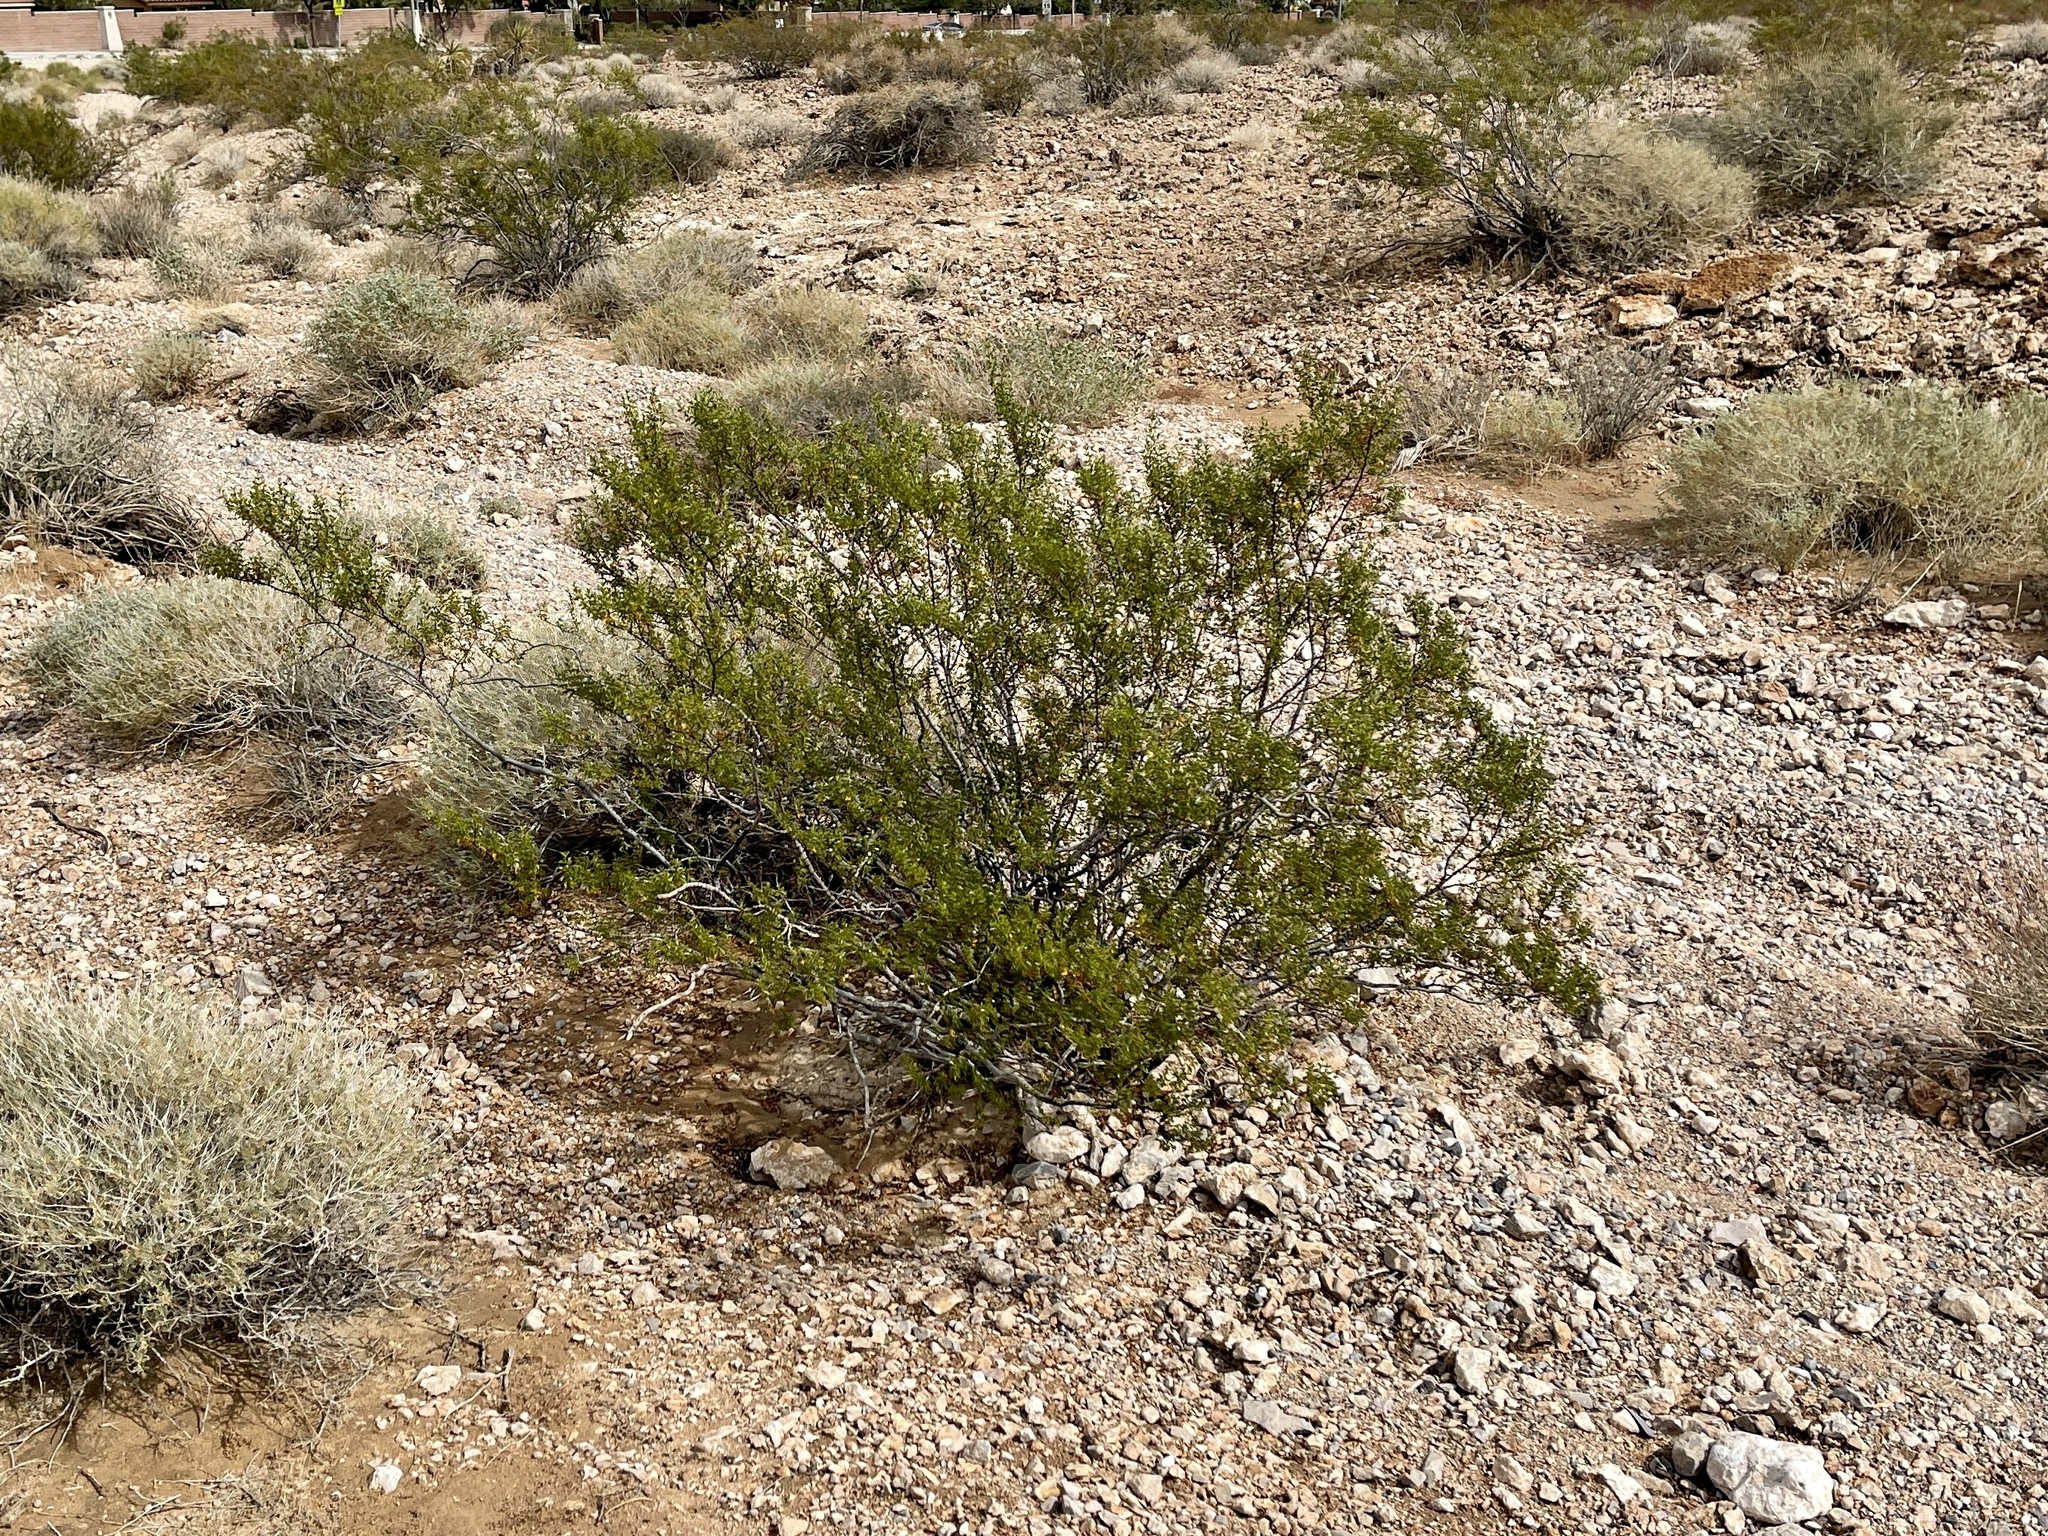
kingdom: Plantae
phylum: Tracheophyta
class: Magnoliopsida
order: Zygophyllales
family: Zygophyllaceae
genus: Larrea
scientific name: Larrea tridentata
